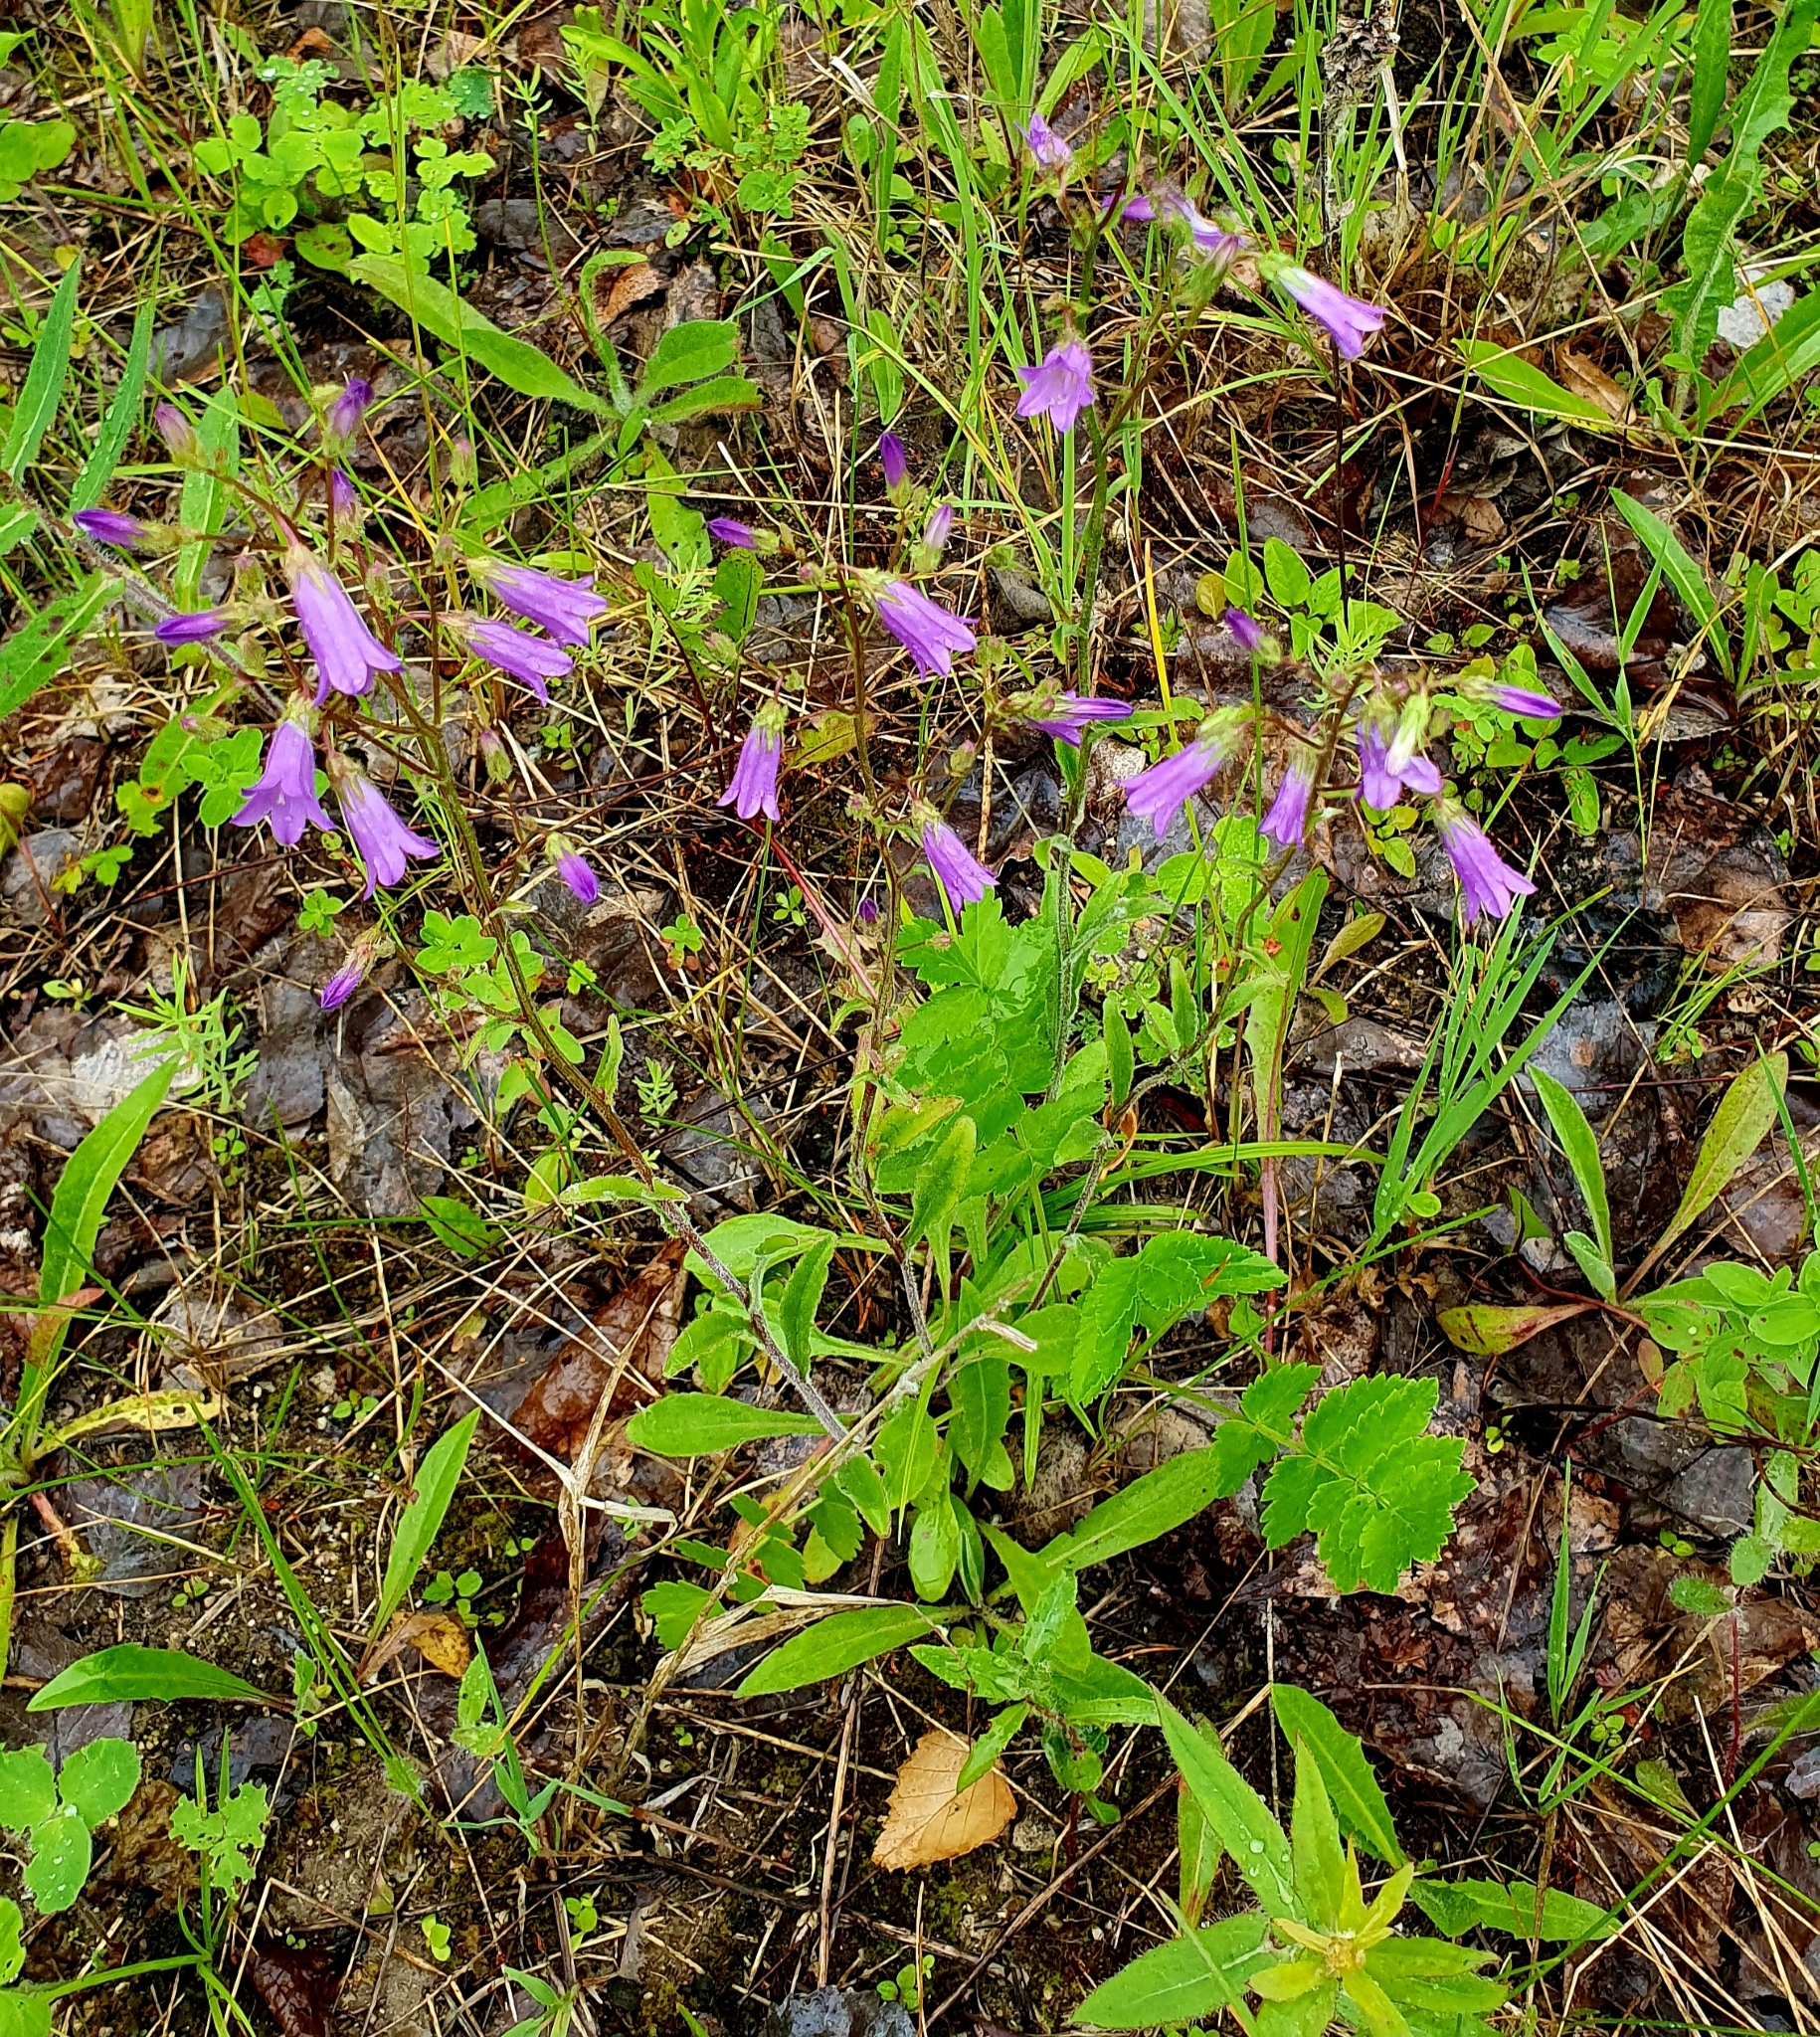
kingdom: Plantae
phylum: Tracheophyta
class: Magnoliopsida
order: Asterales
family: Campanulaceae
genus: Campanula
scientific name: Campanula sibirica
